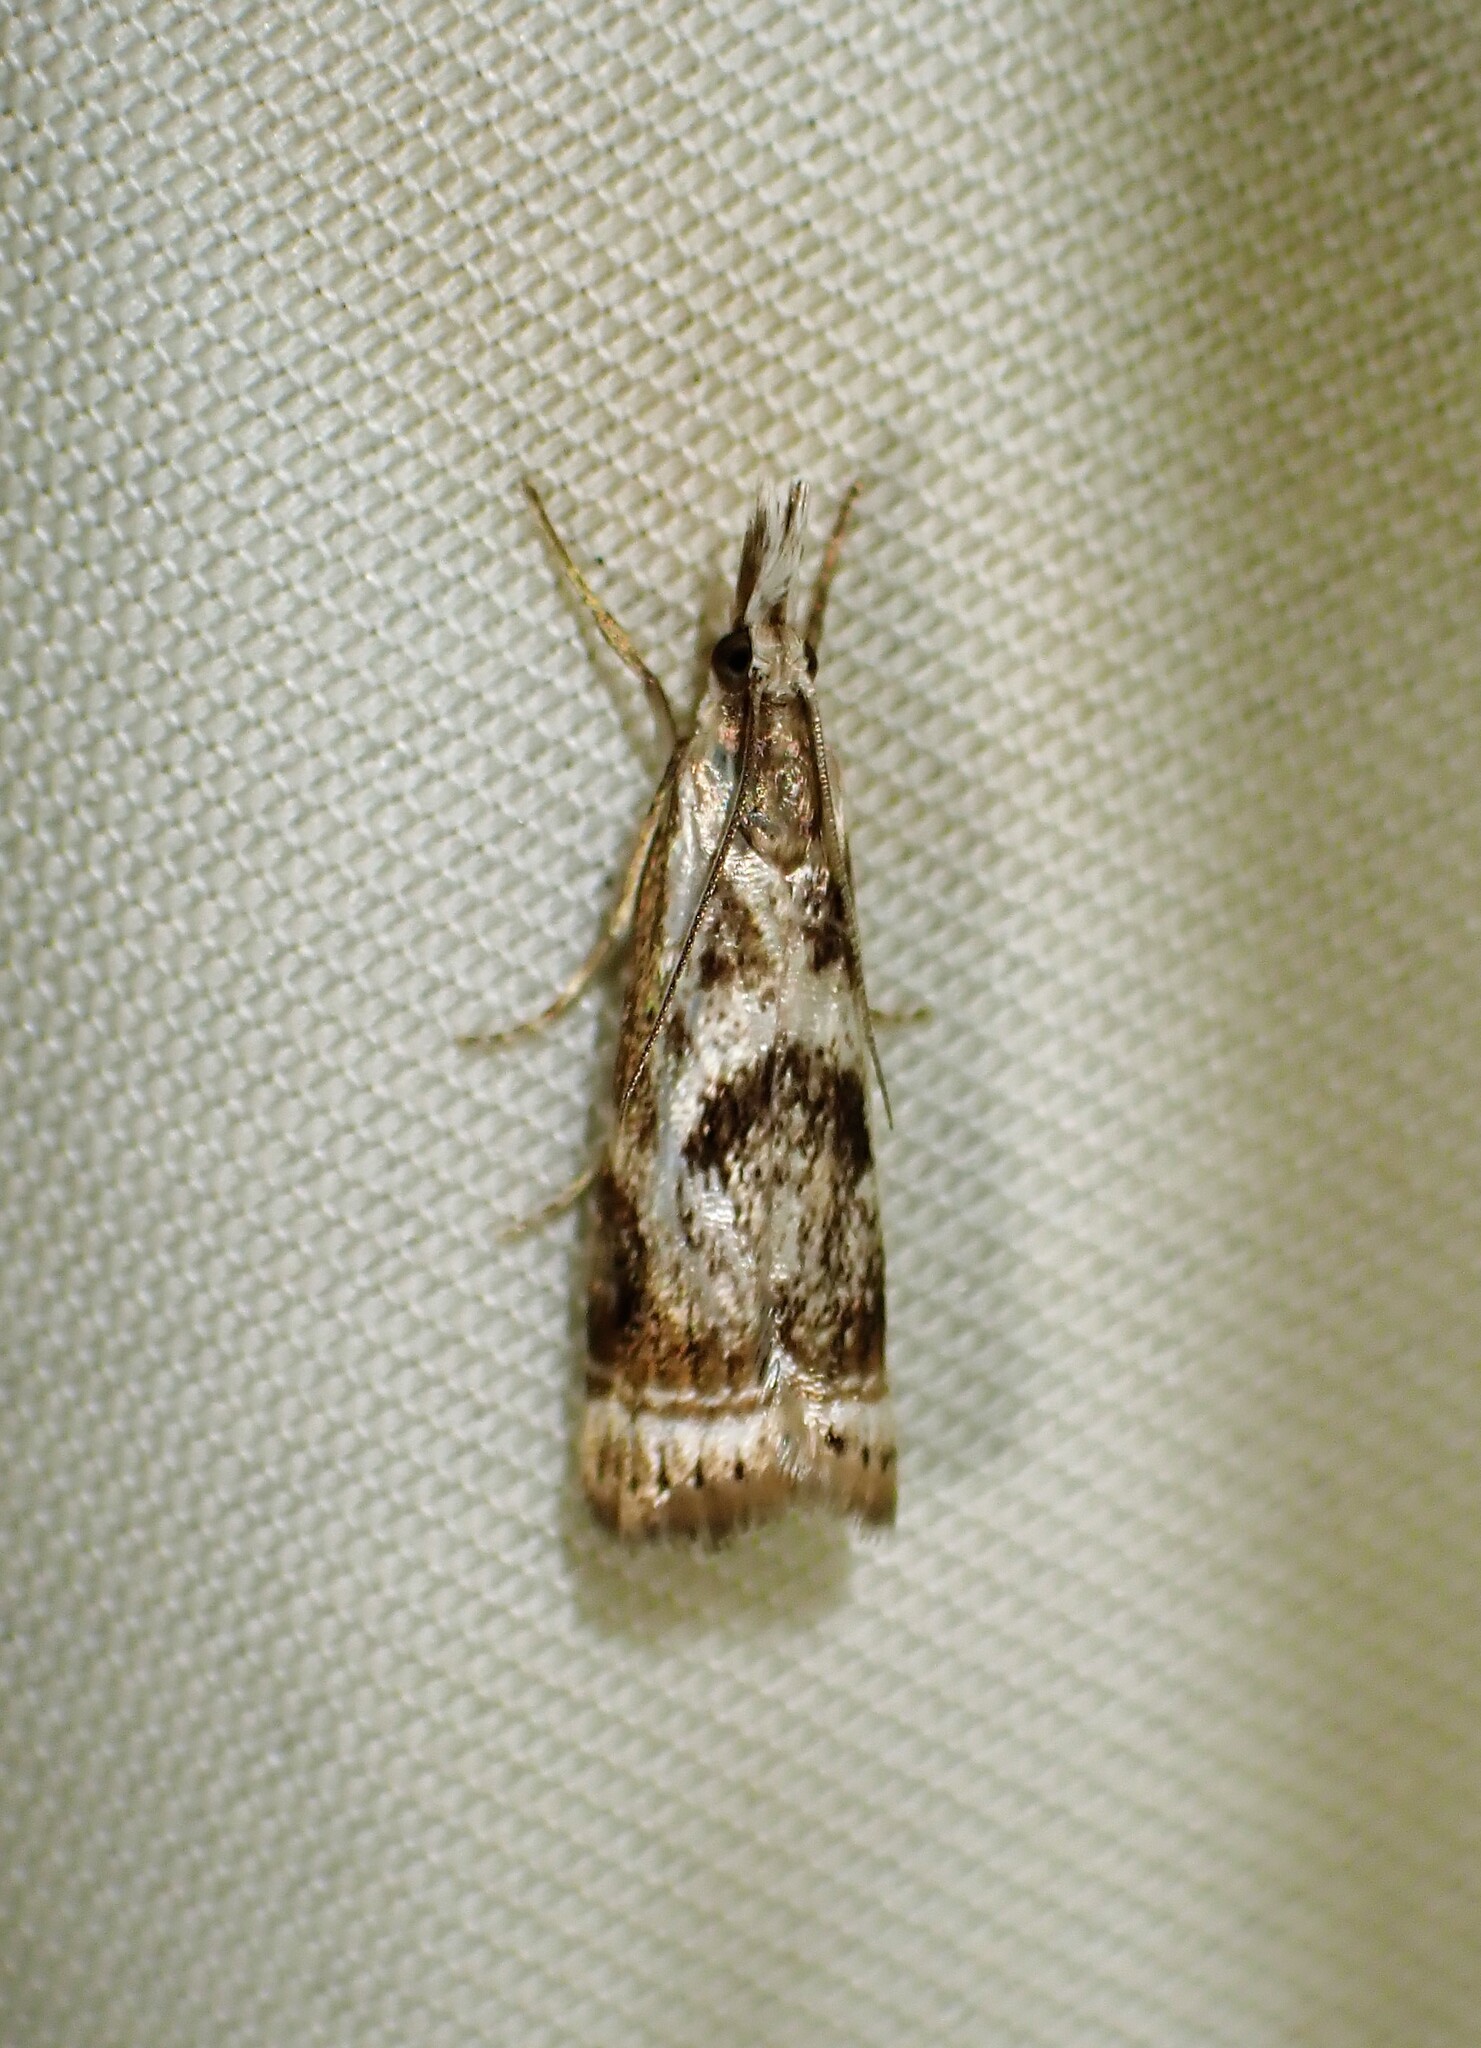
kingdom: Animalia
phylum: Arthropoda
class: Insecta
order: Lepidoptera
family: Crambidae
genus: Microcrambus
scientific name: Microcrambus elegans
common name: Elegant grass-veneer
